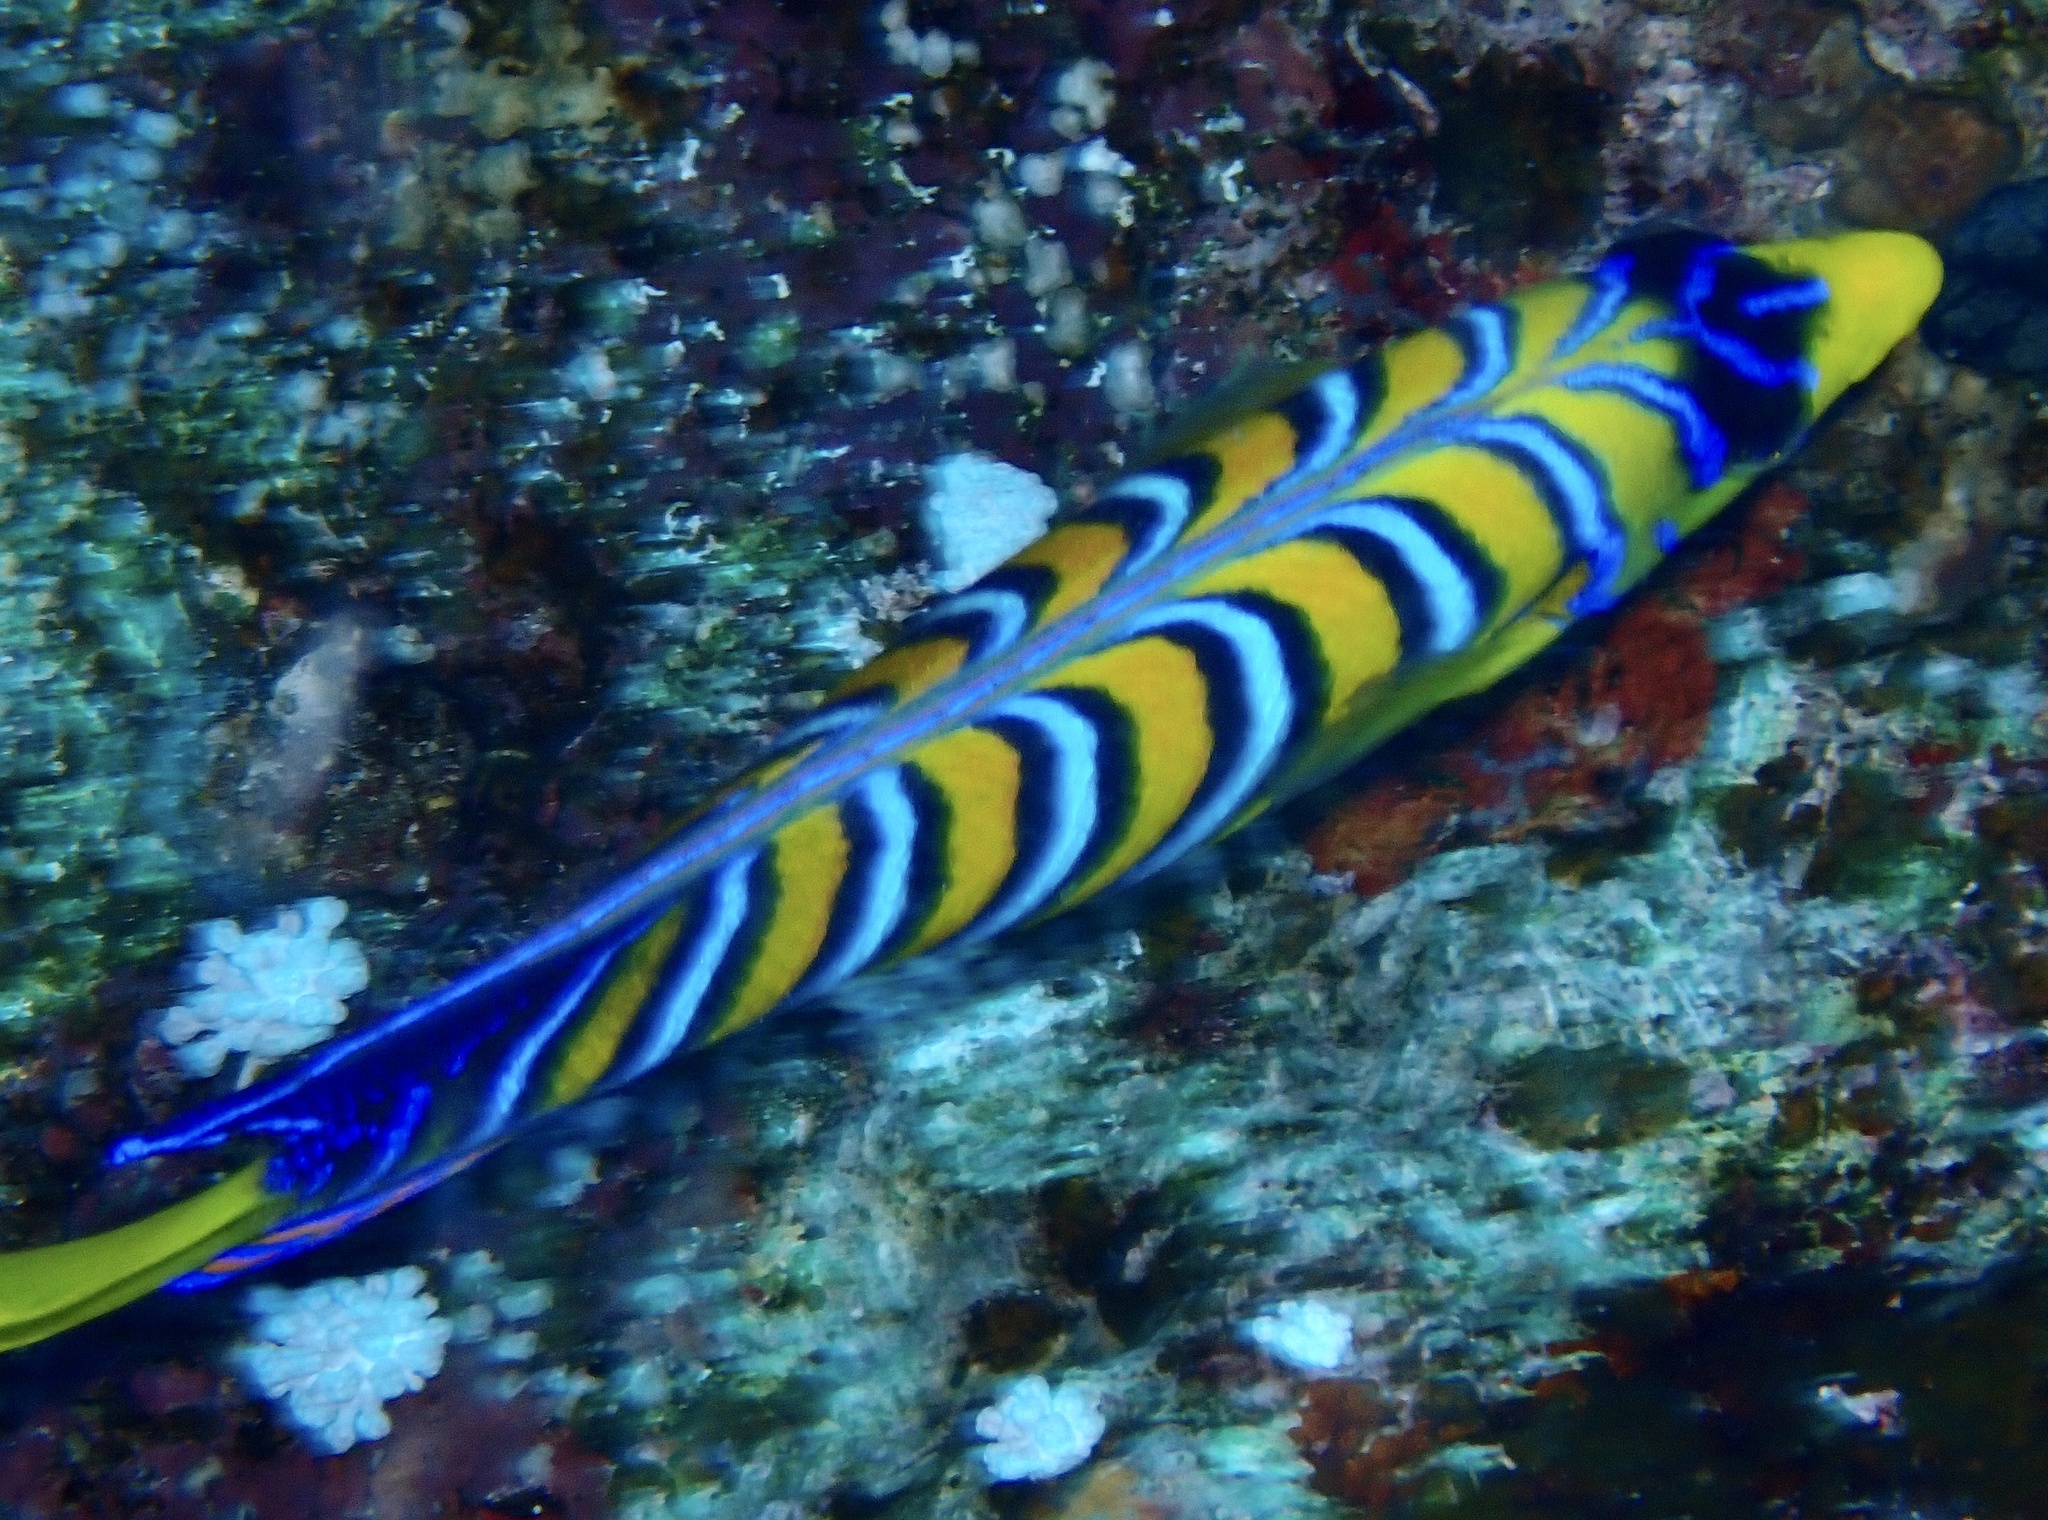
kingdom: Animalia
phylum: Chordata
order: Perciformes
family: Pomacanthidae
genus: Pygoplites
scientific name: Pygoplites diacanthus
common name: Regal angelfish
